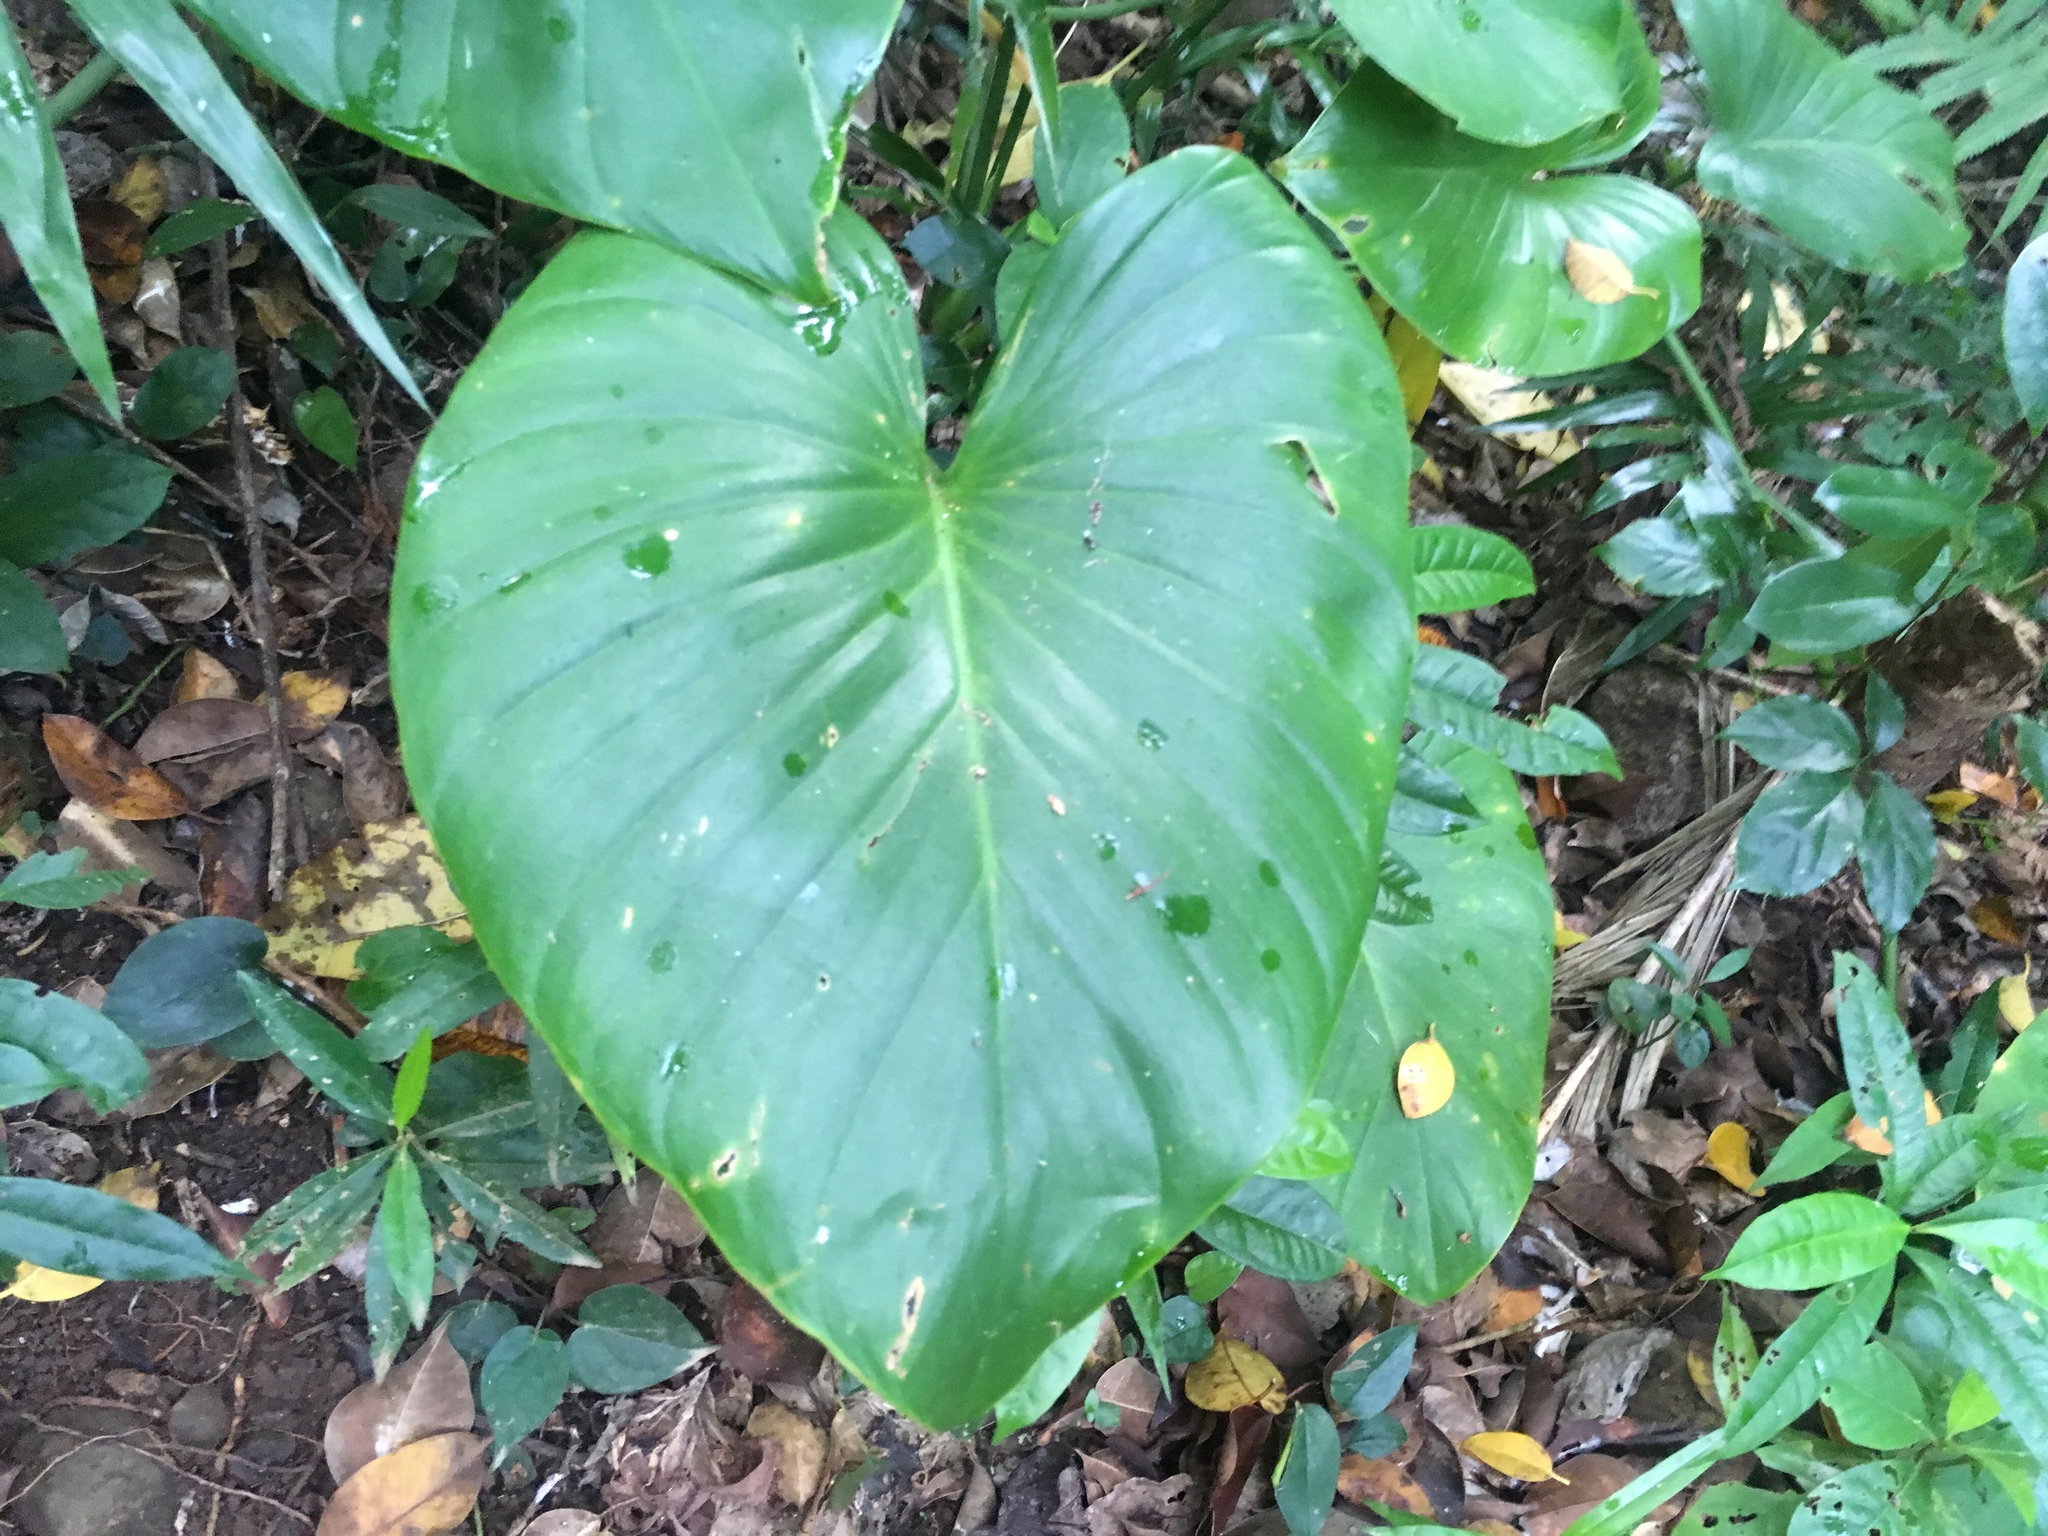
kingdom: Plantae
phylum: Tracheophyta
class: Liliopsida
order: Alismatales
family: Araceae
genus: Homalomena
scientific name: Homalomena philippinensis
